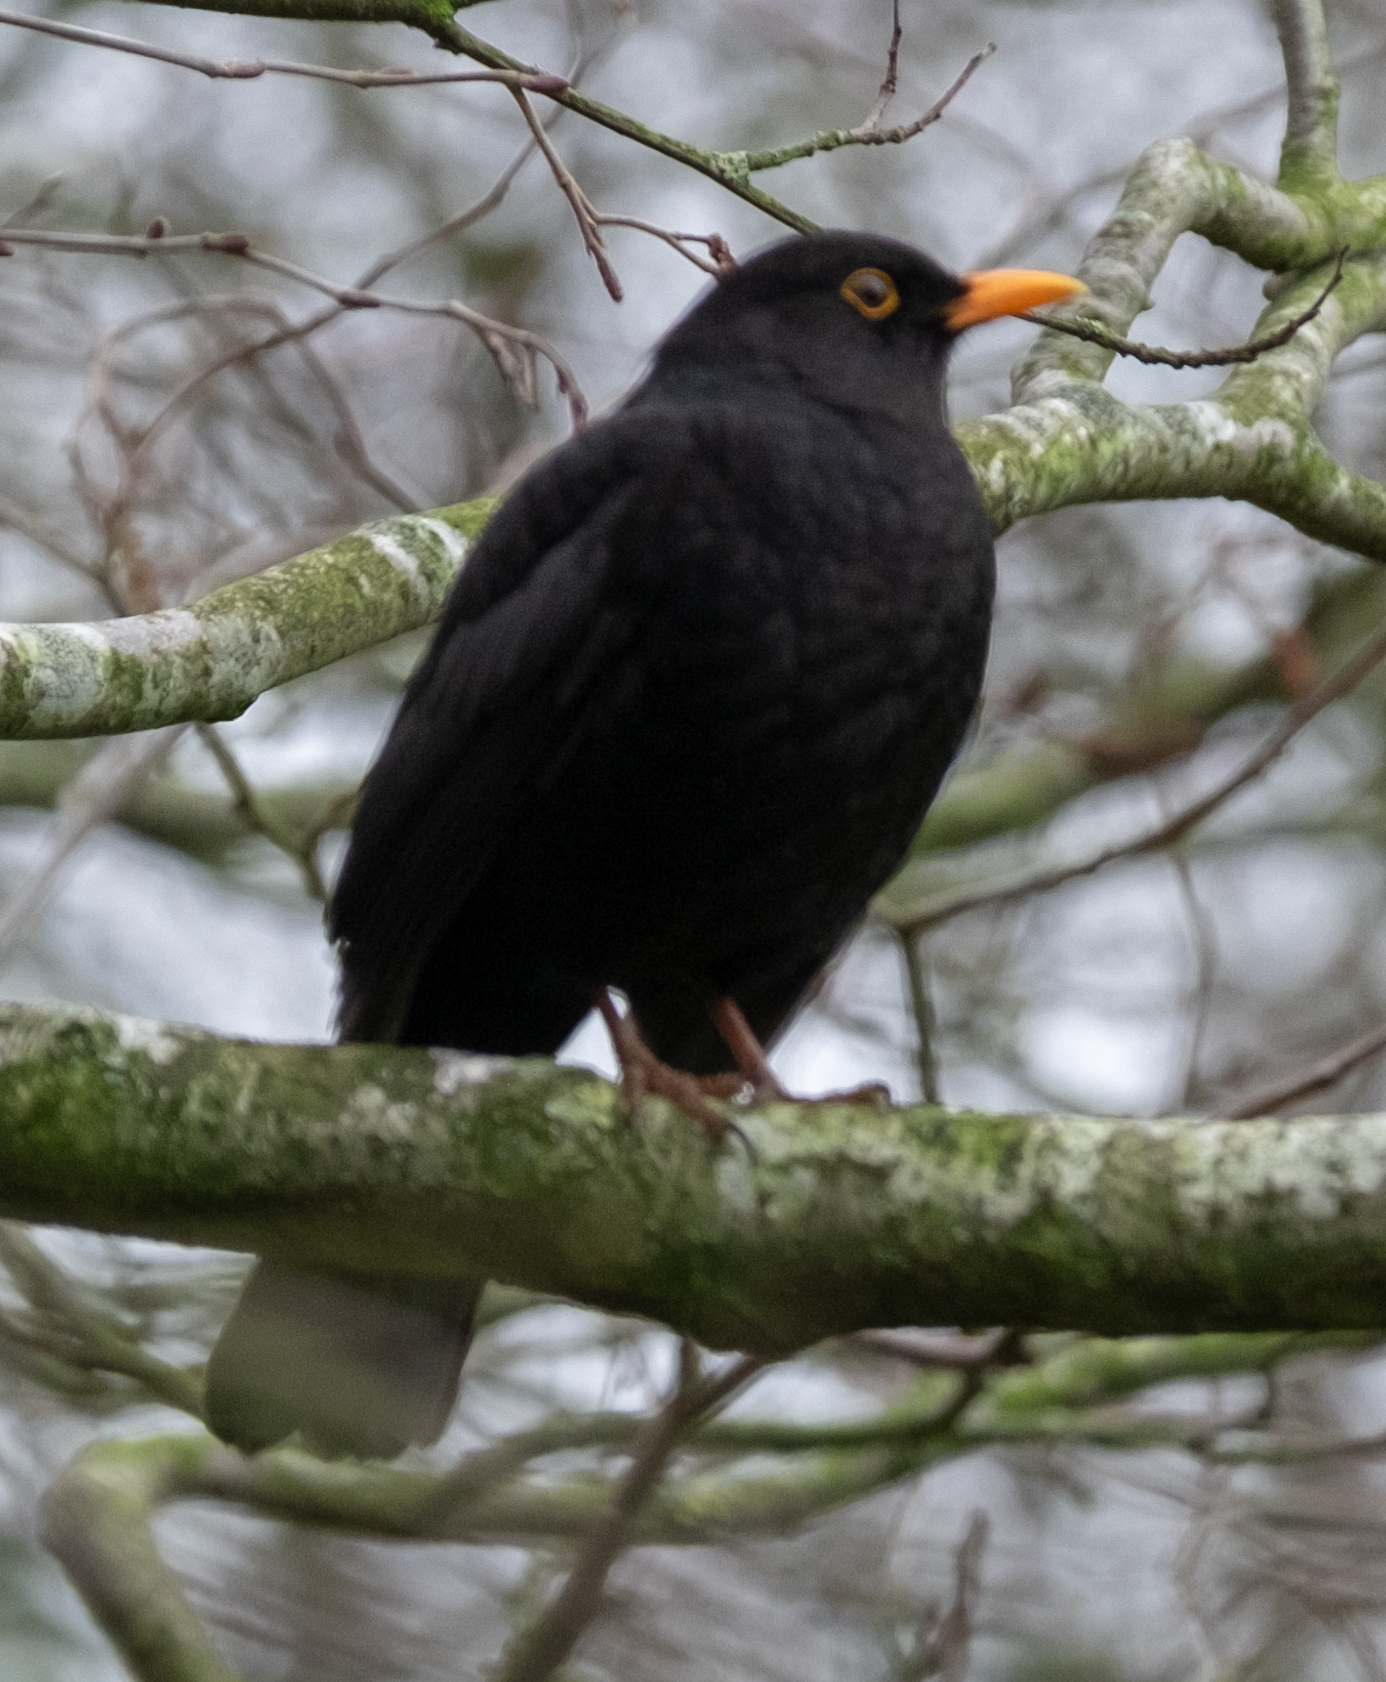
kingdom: Animalia
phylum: Chordata
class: Aves
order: Passeriformes
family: Turdidae
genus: Turdus
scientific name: Turdus merula
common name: Common blackbird
